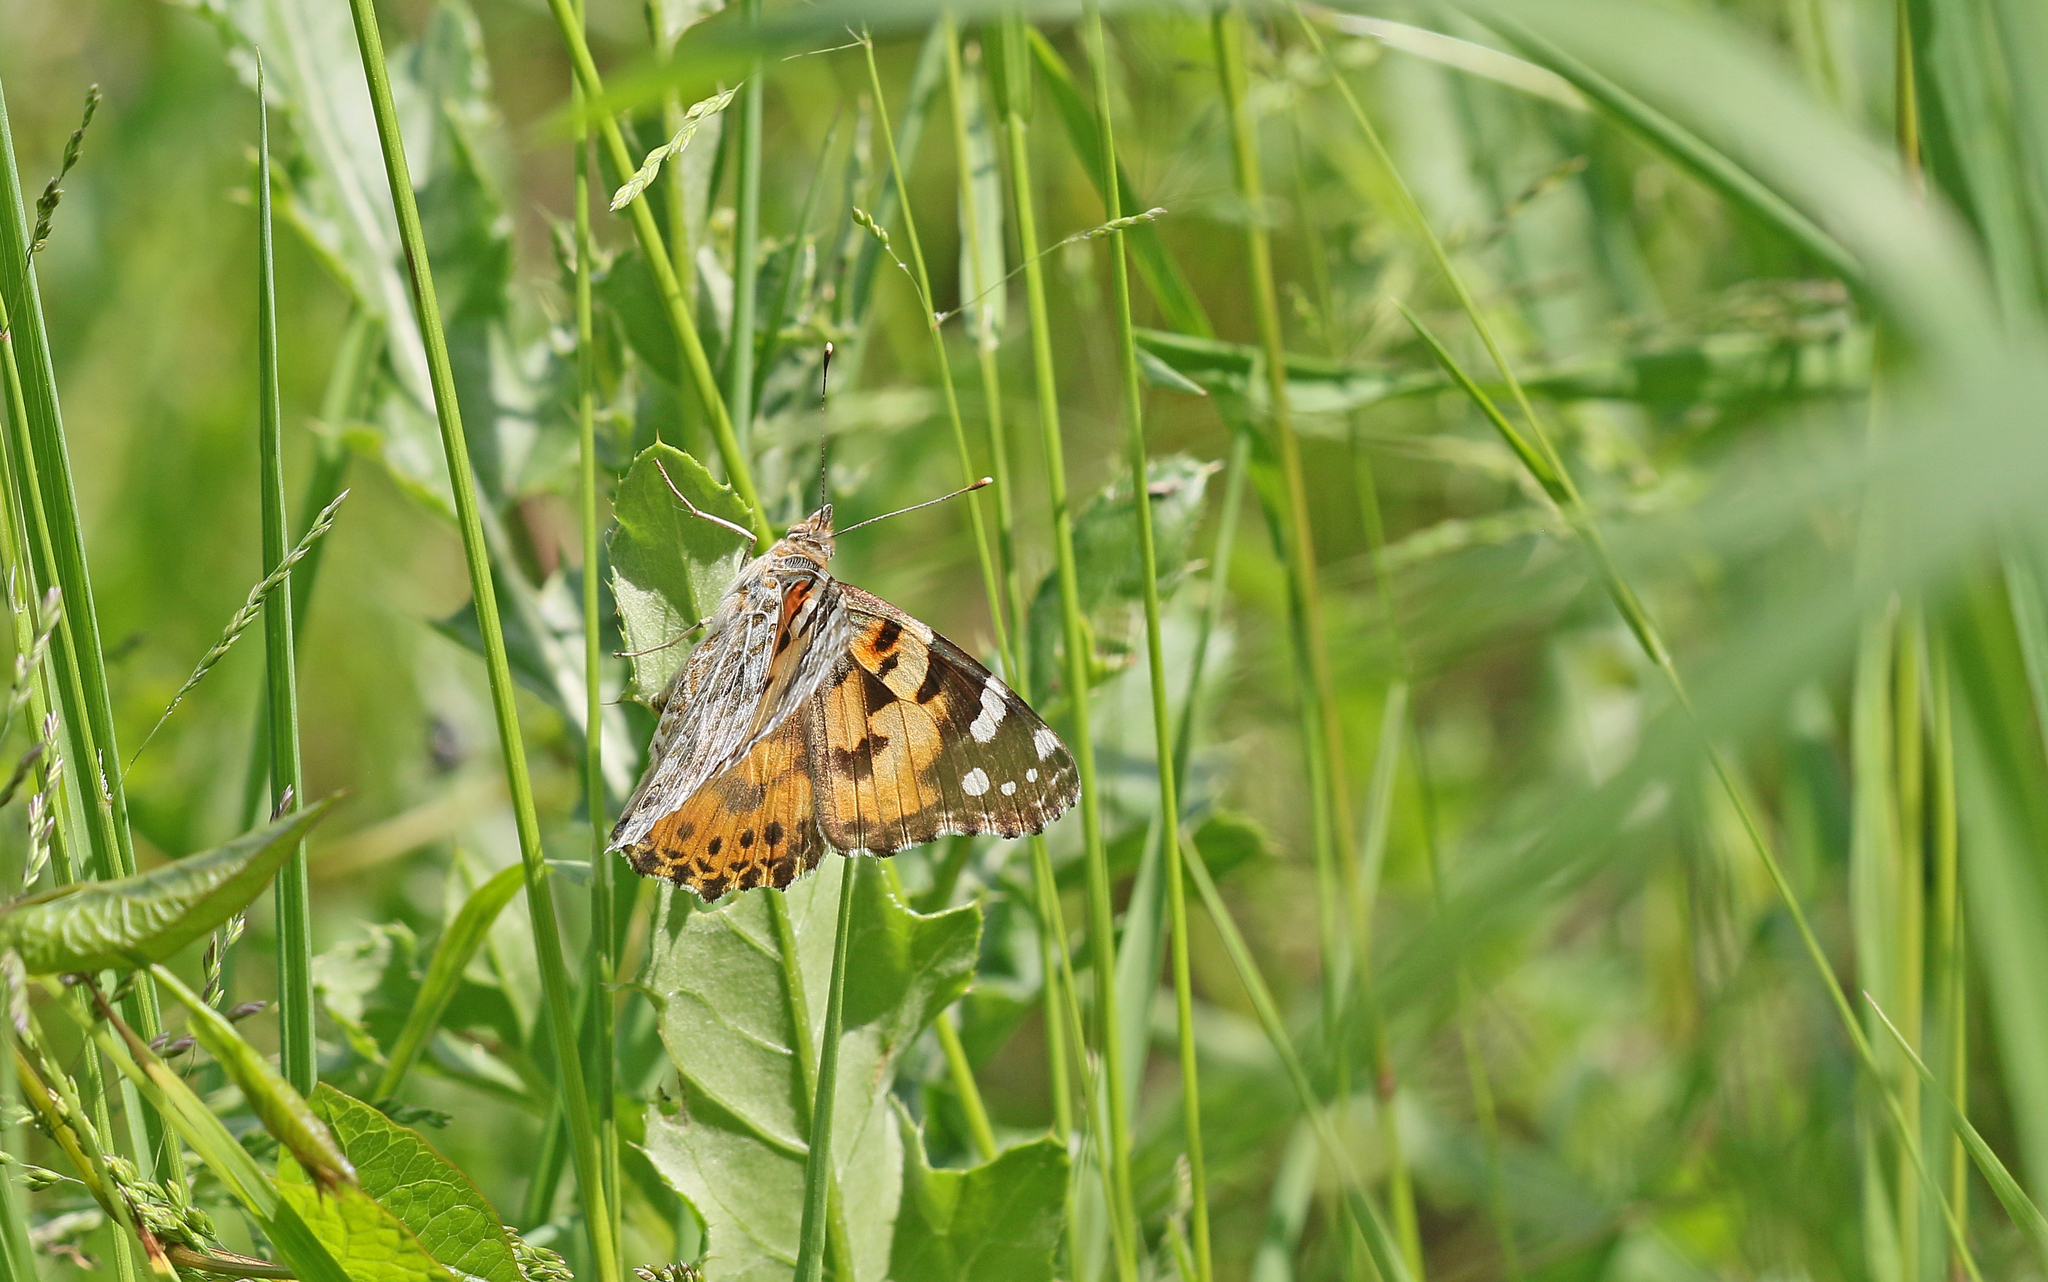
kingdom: Animalia
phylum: Arthropoda
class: Insecta
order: Lepidoptera
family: Nymphalidae
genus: Vanessa
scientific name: Vanessa cardui
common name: Painted lady
